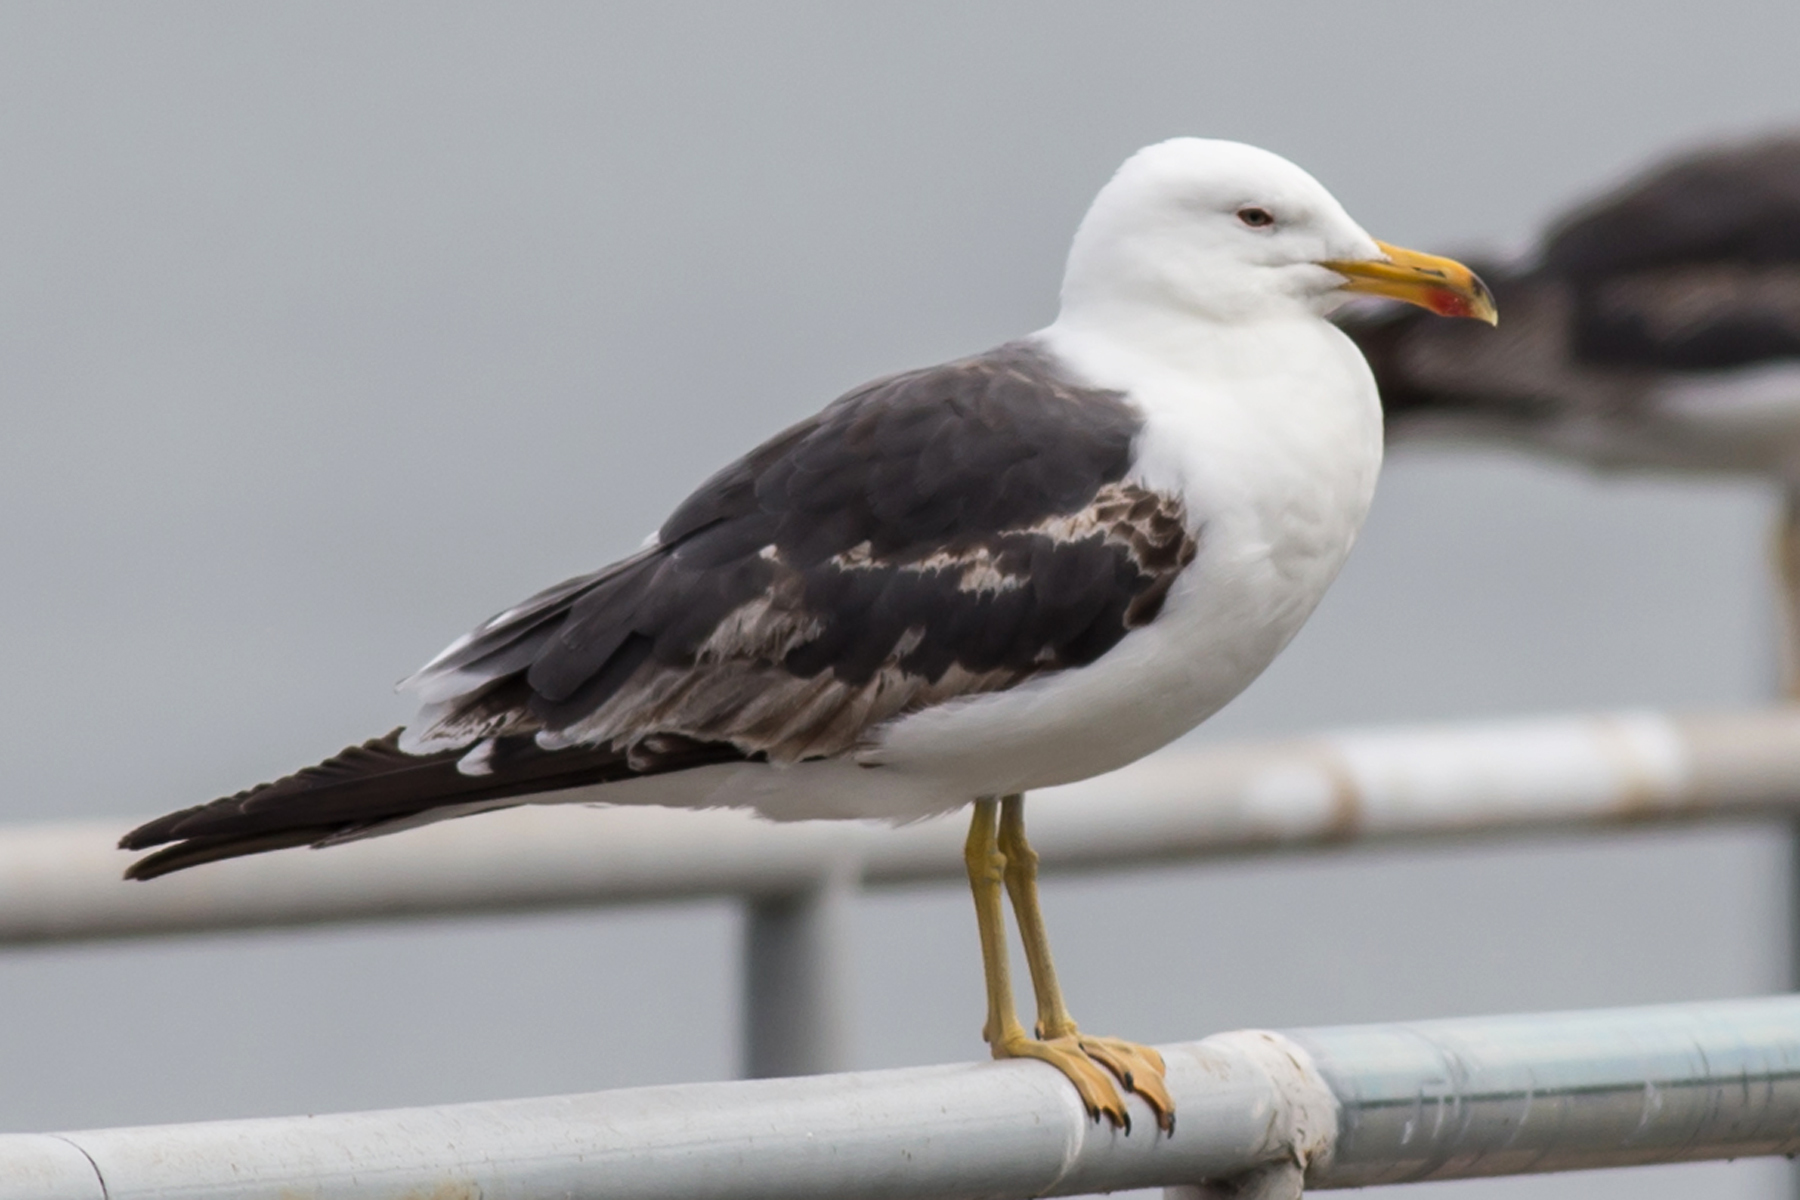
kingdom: Animalia
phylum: Chordata
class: Aves
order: Charadriiformes
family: Laridae
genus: Larus
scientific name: Larus fuscus
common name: Lesser black-backed gull
